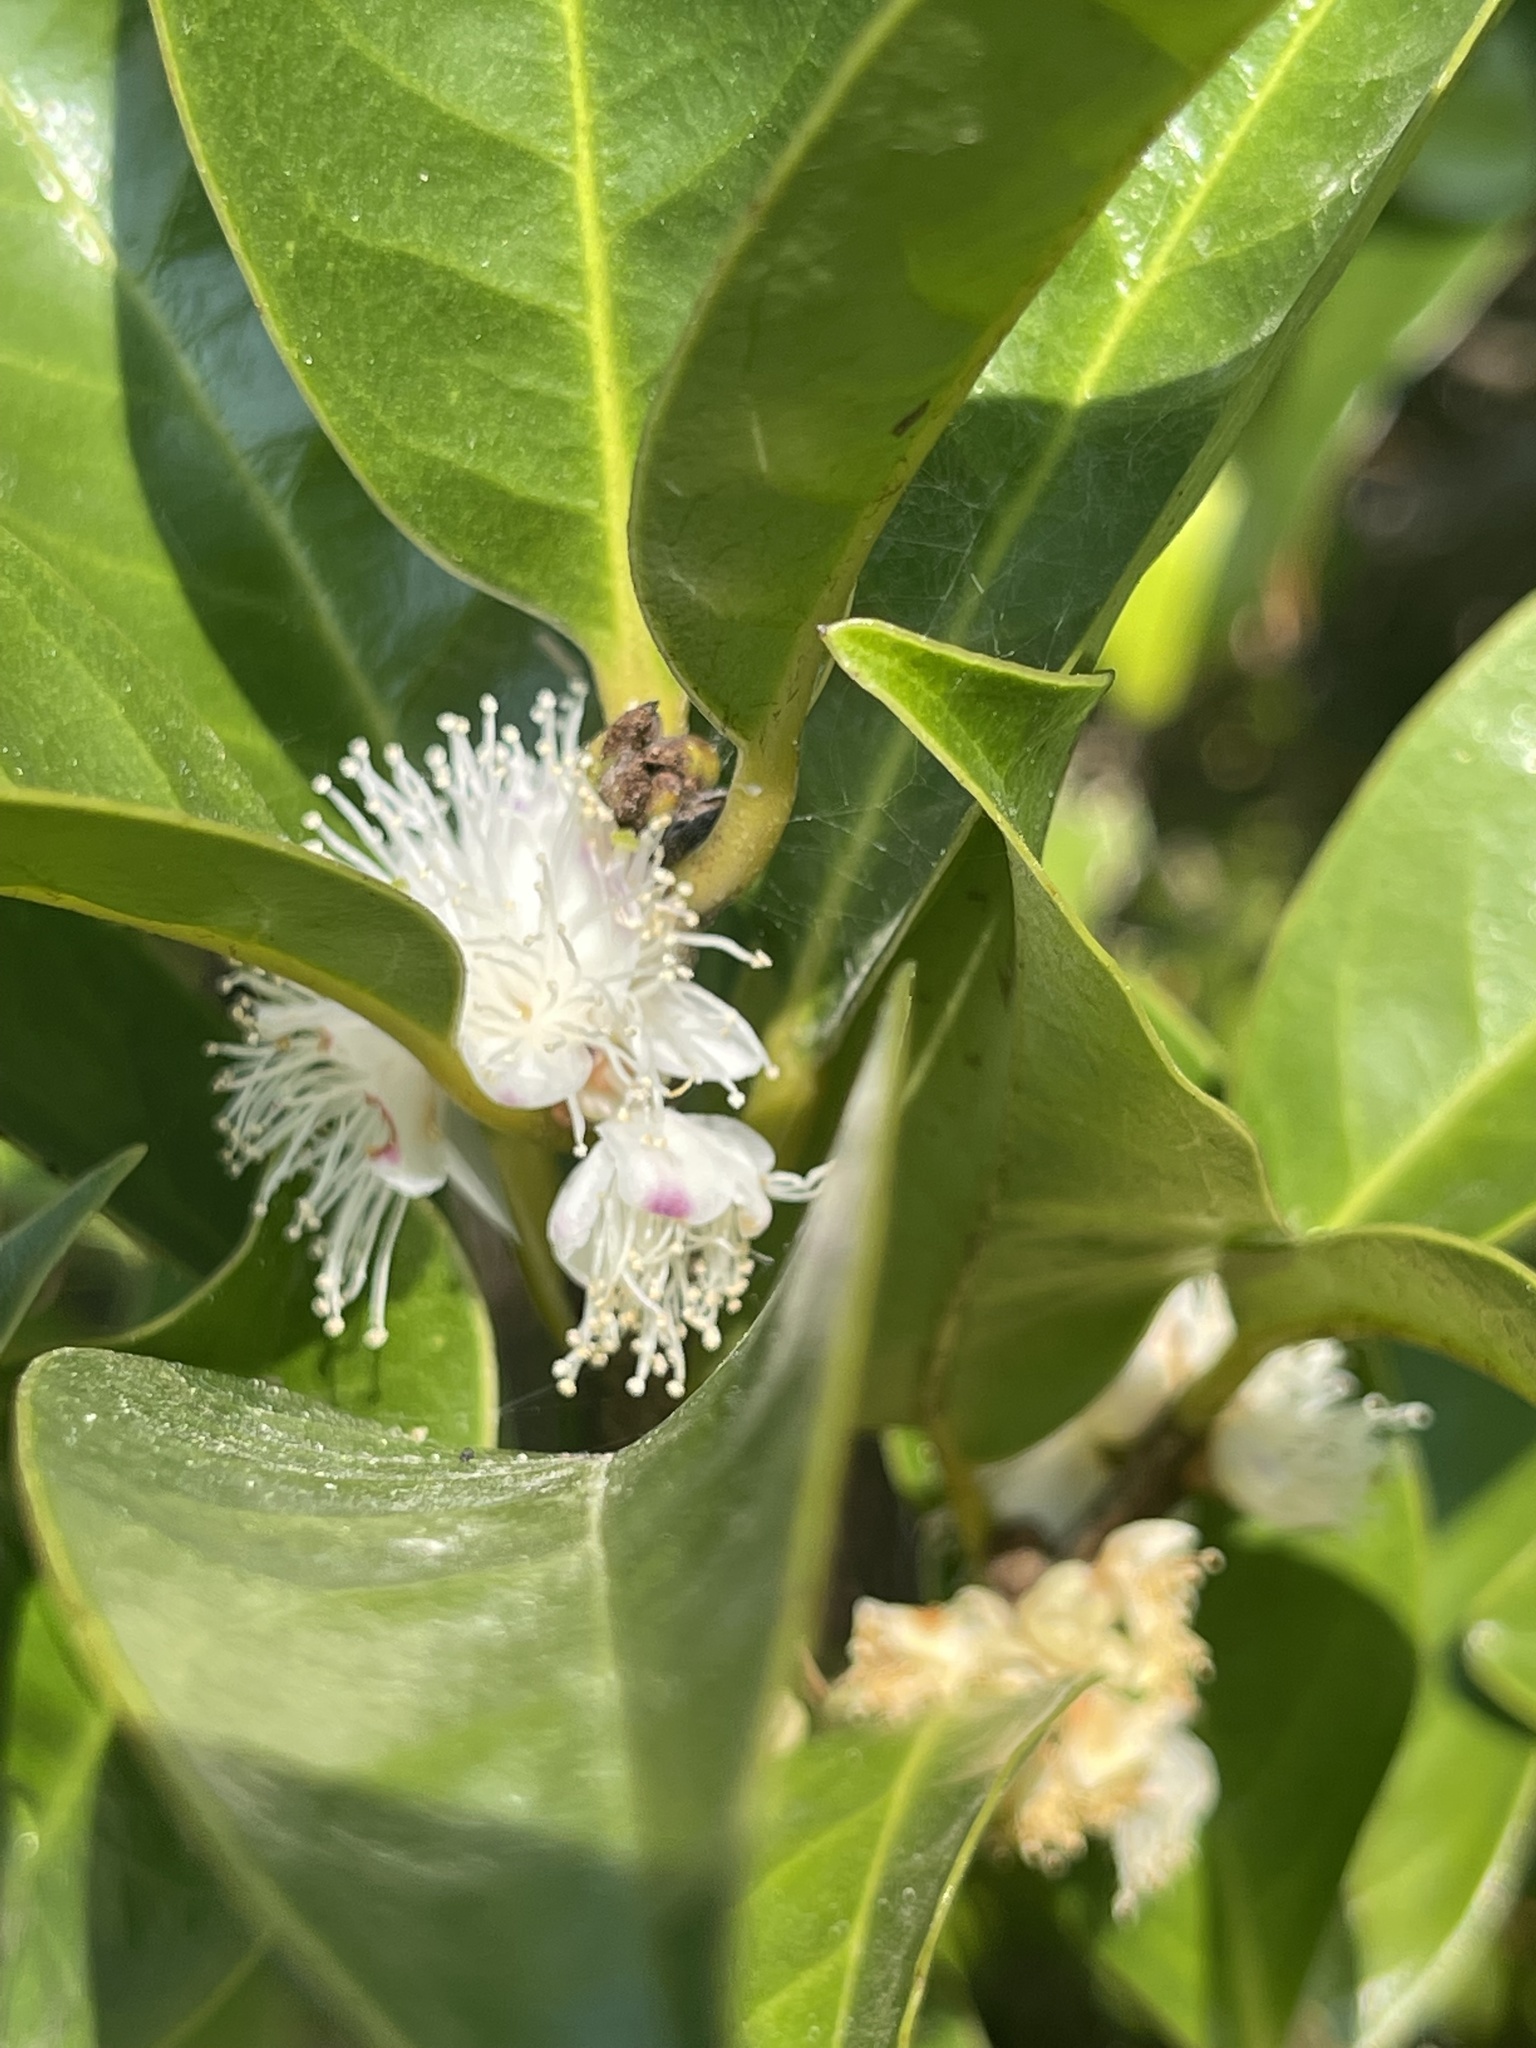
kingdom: Plantae
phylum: Tracheophyta
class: Magnoliopsida
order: Ericales
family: Symplocaceae
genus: Symplocos
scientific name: Symplocos congesta
